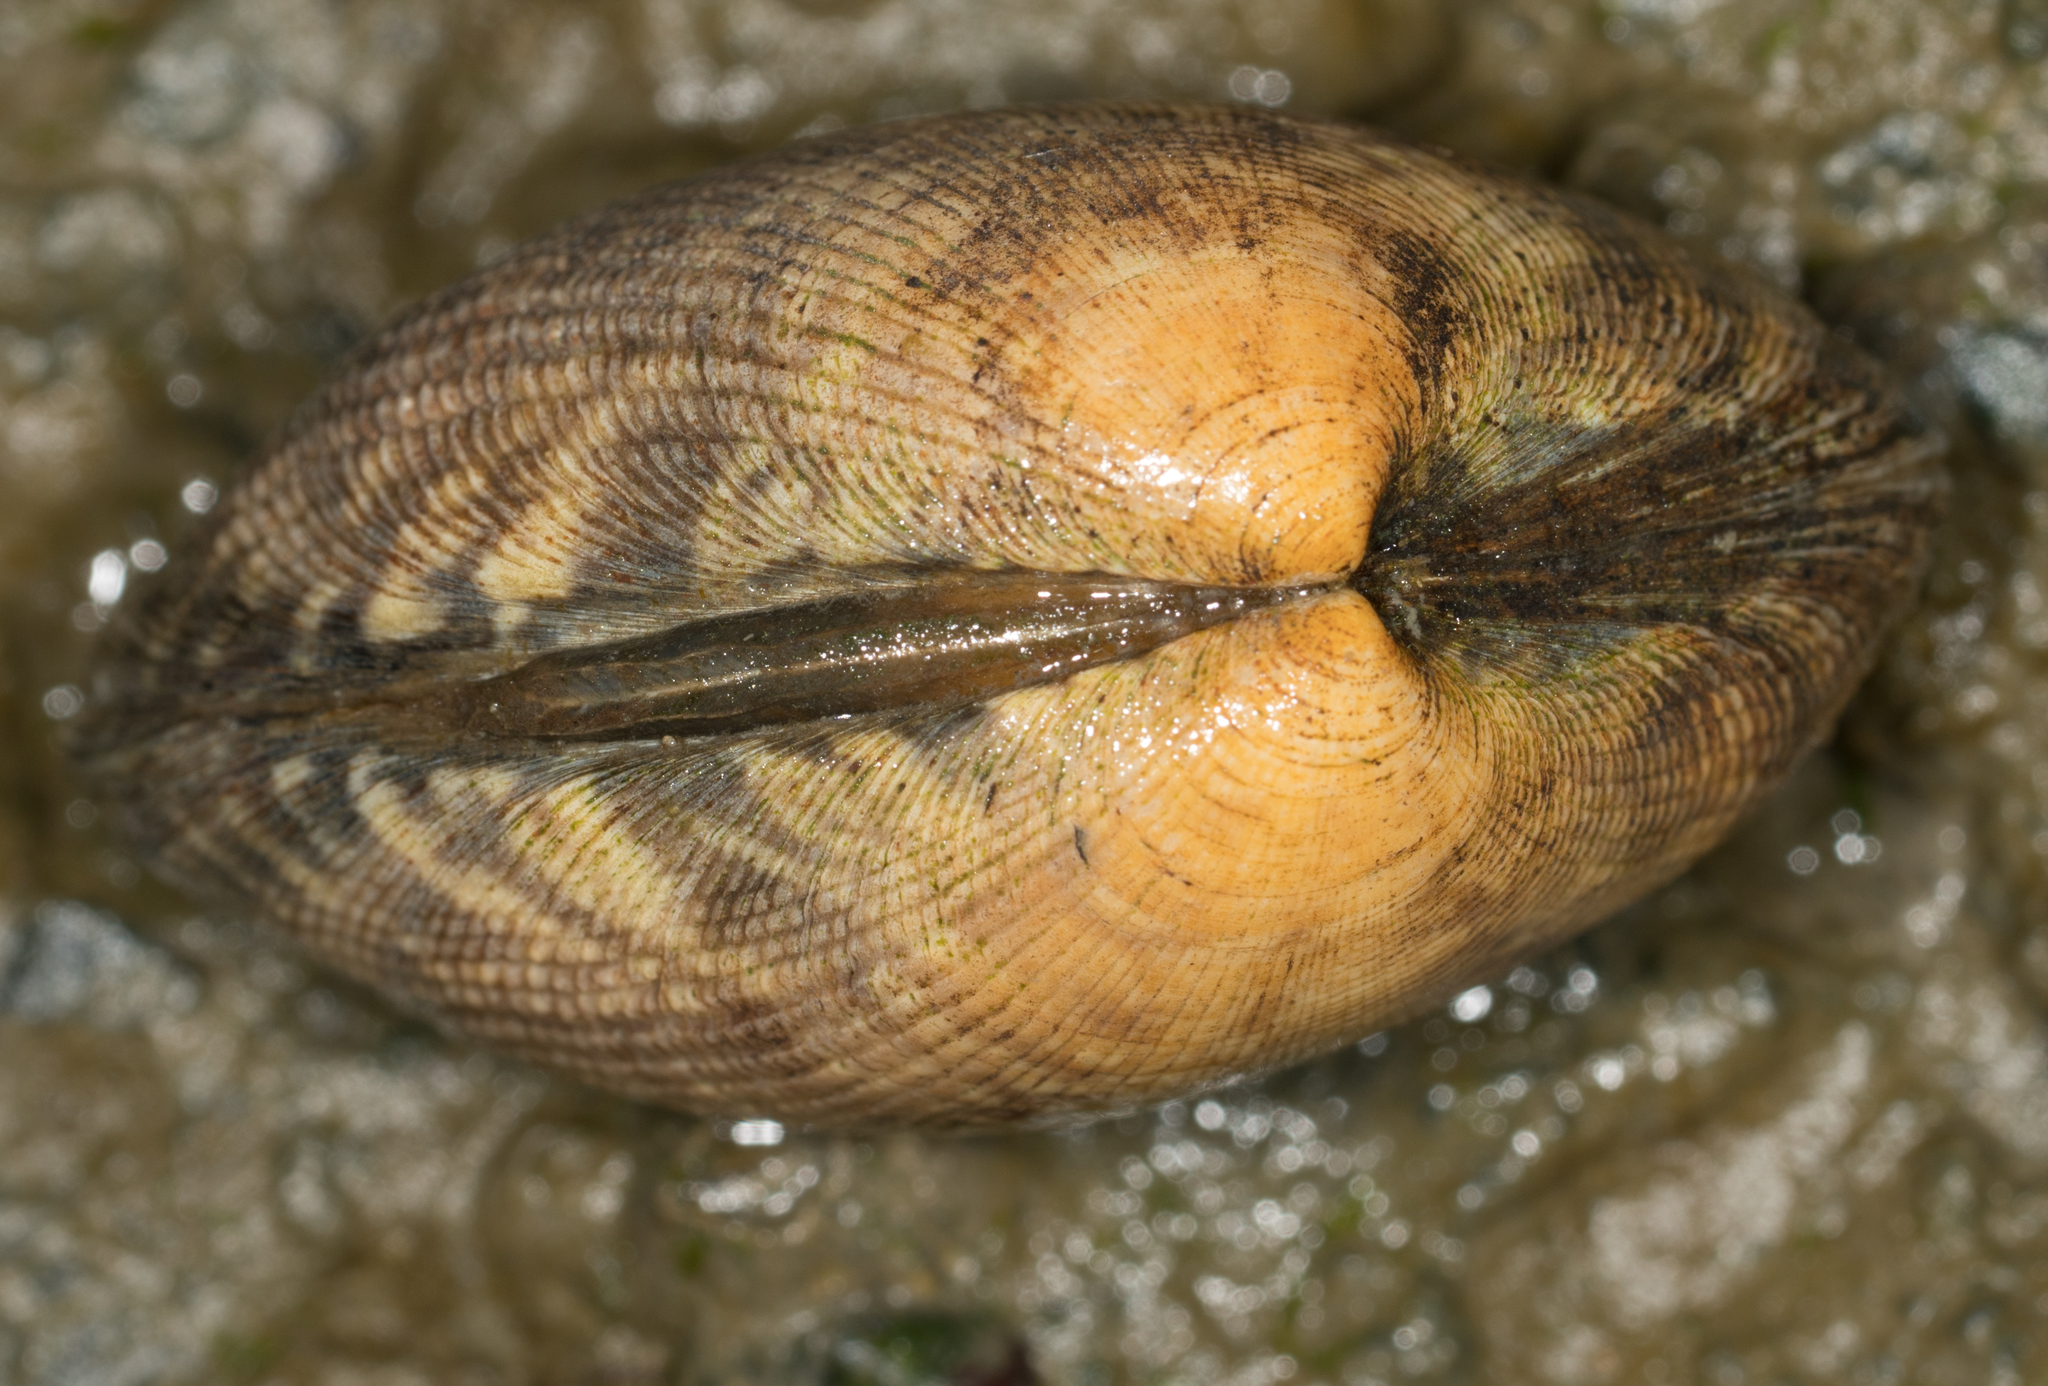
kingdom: Animalia
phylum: Mollusca
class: Bivalvia
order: Venerida
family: Veneridae
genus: Ruditapes
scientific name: Ruditapes philippinarum
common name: Manila clam
